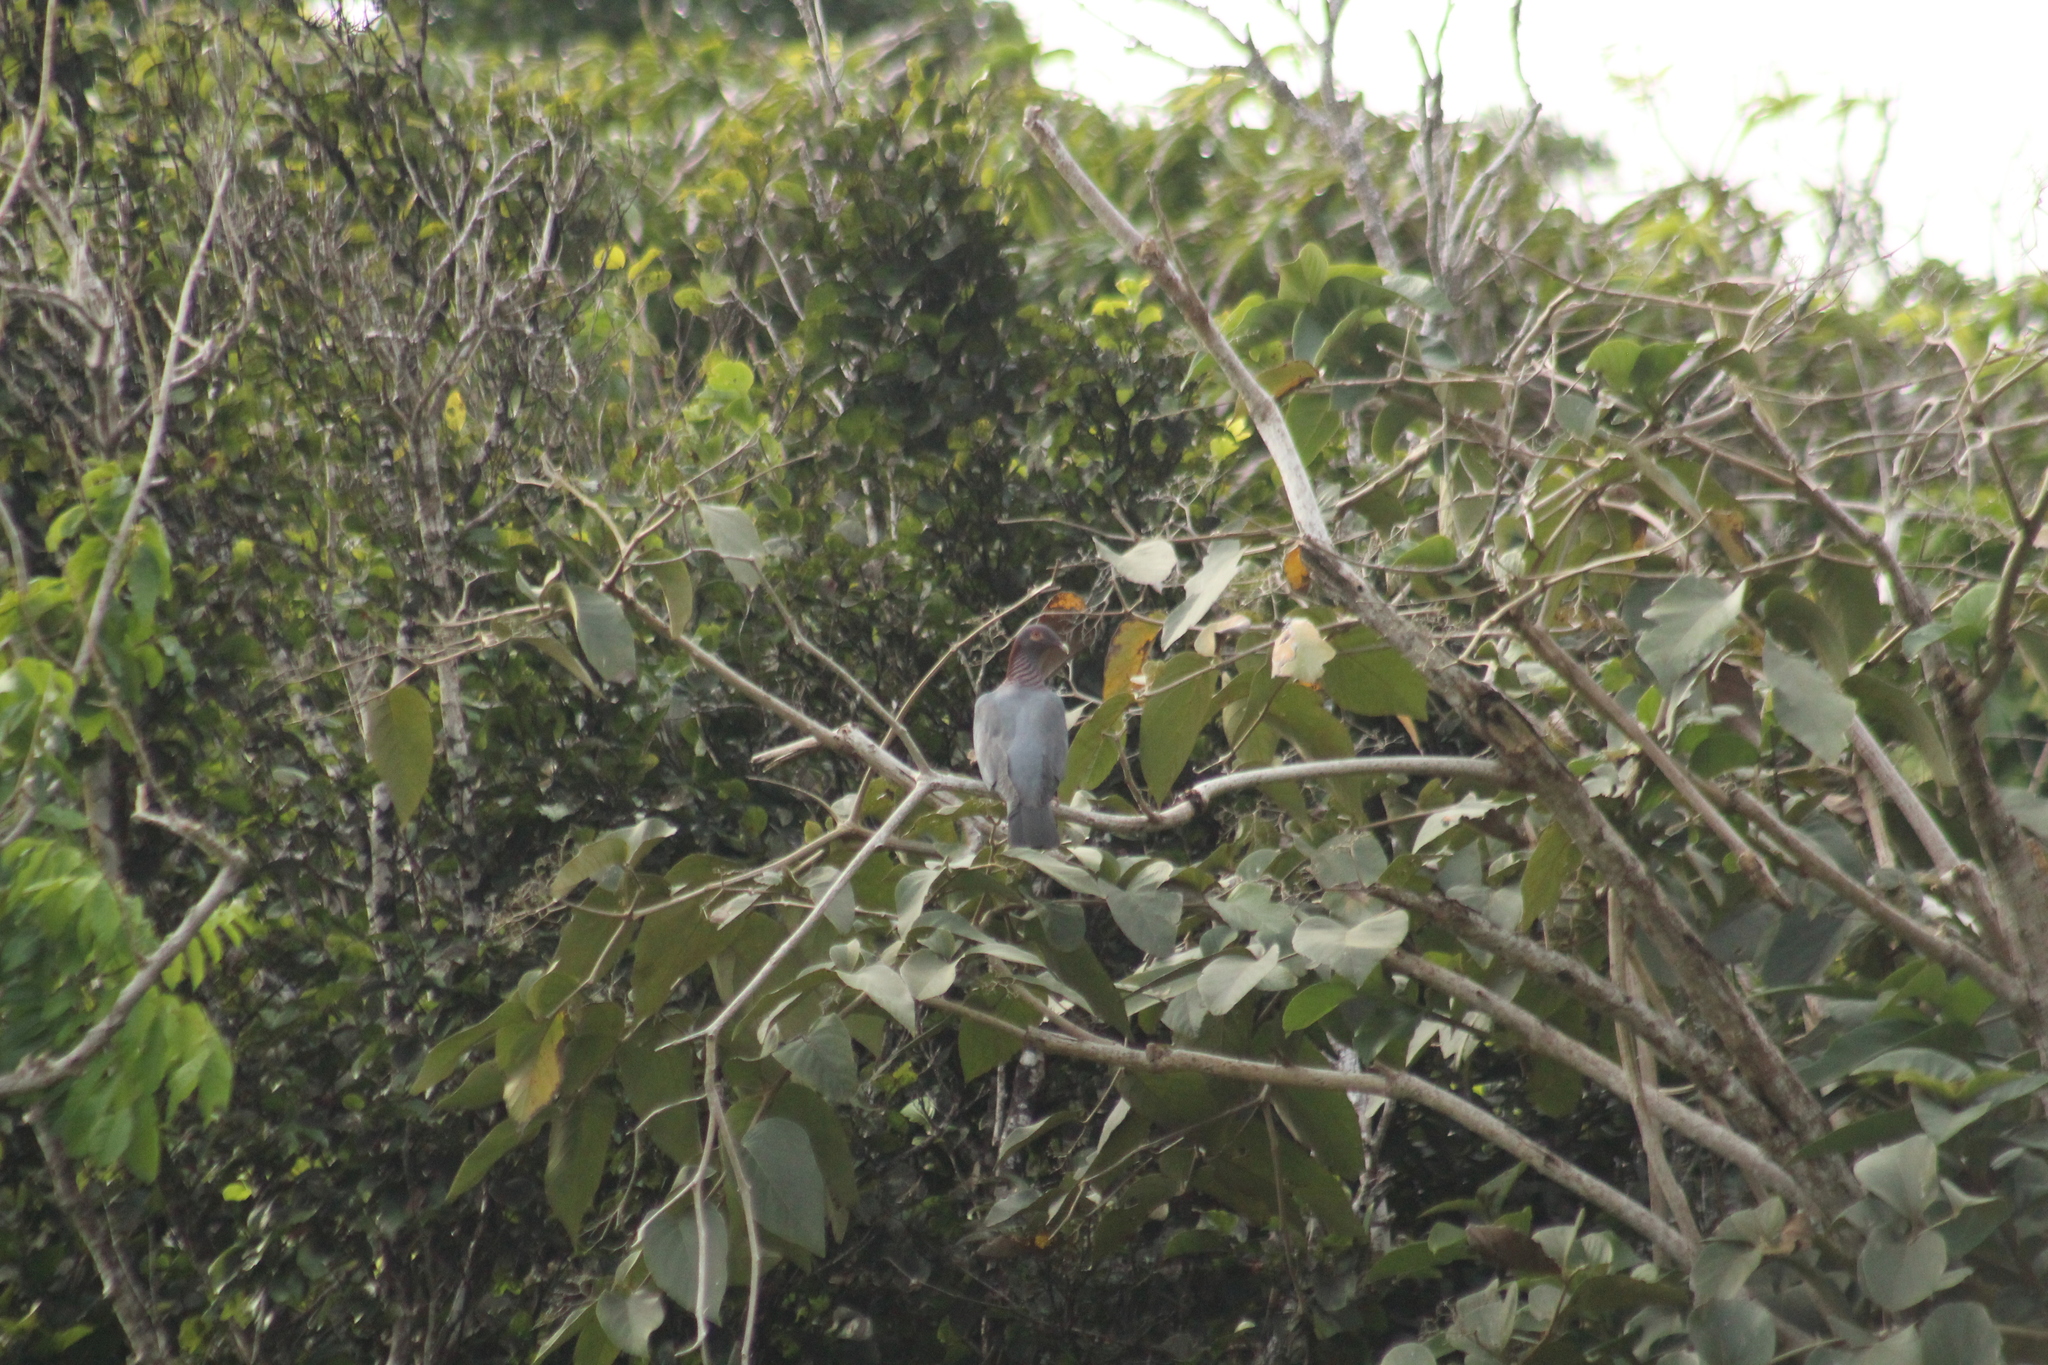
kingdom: Animalia
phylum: Chordata
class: Aves
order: Columbiformes
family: Columbidae
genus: Patagioenas
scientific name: Patagioenas squamosa
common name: Scaly-naped pigeon
